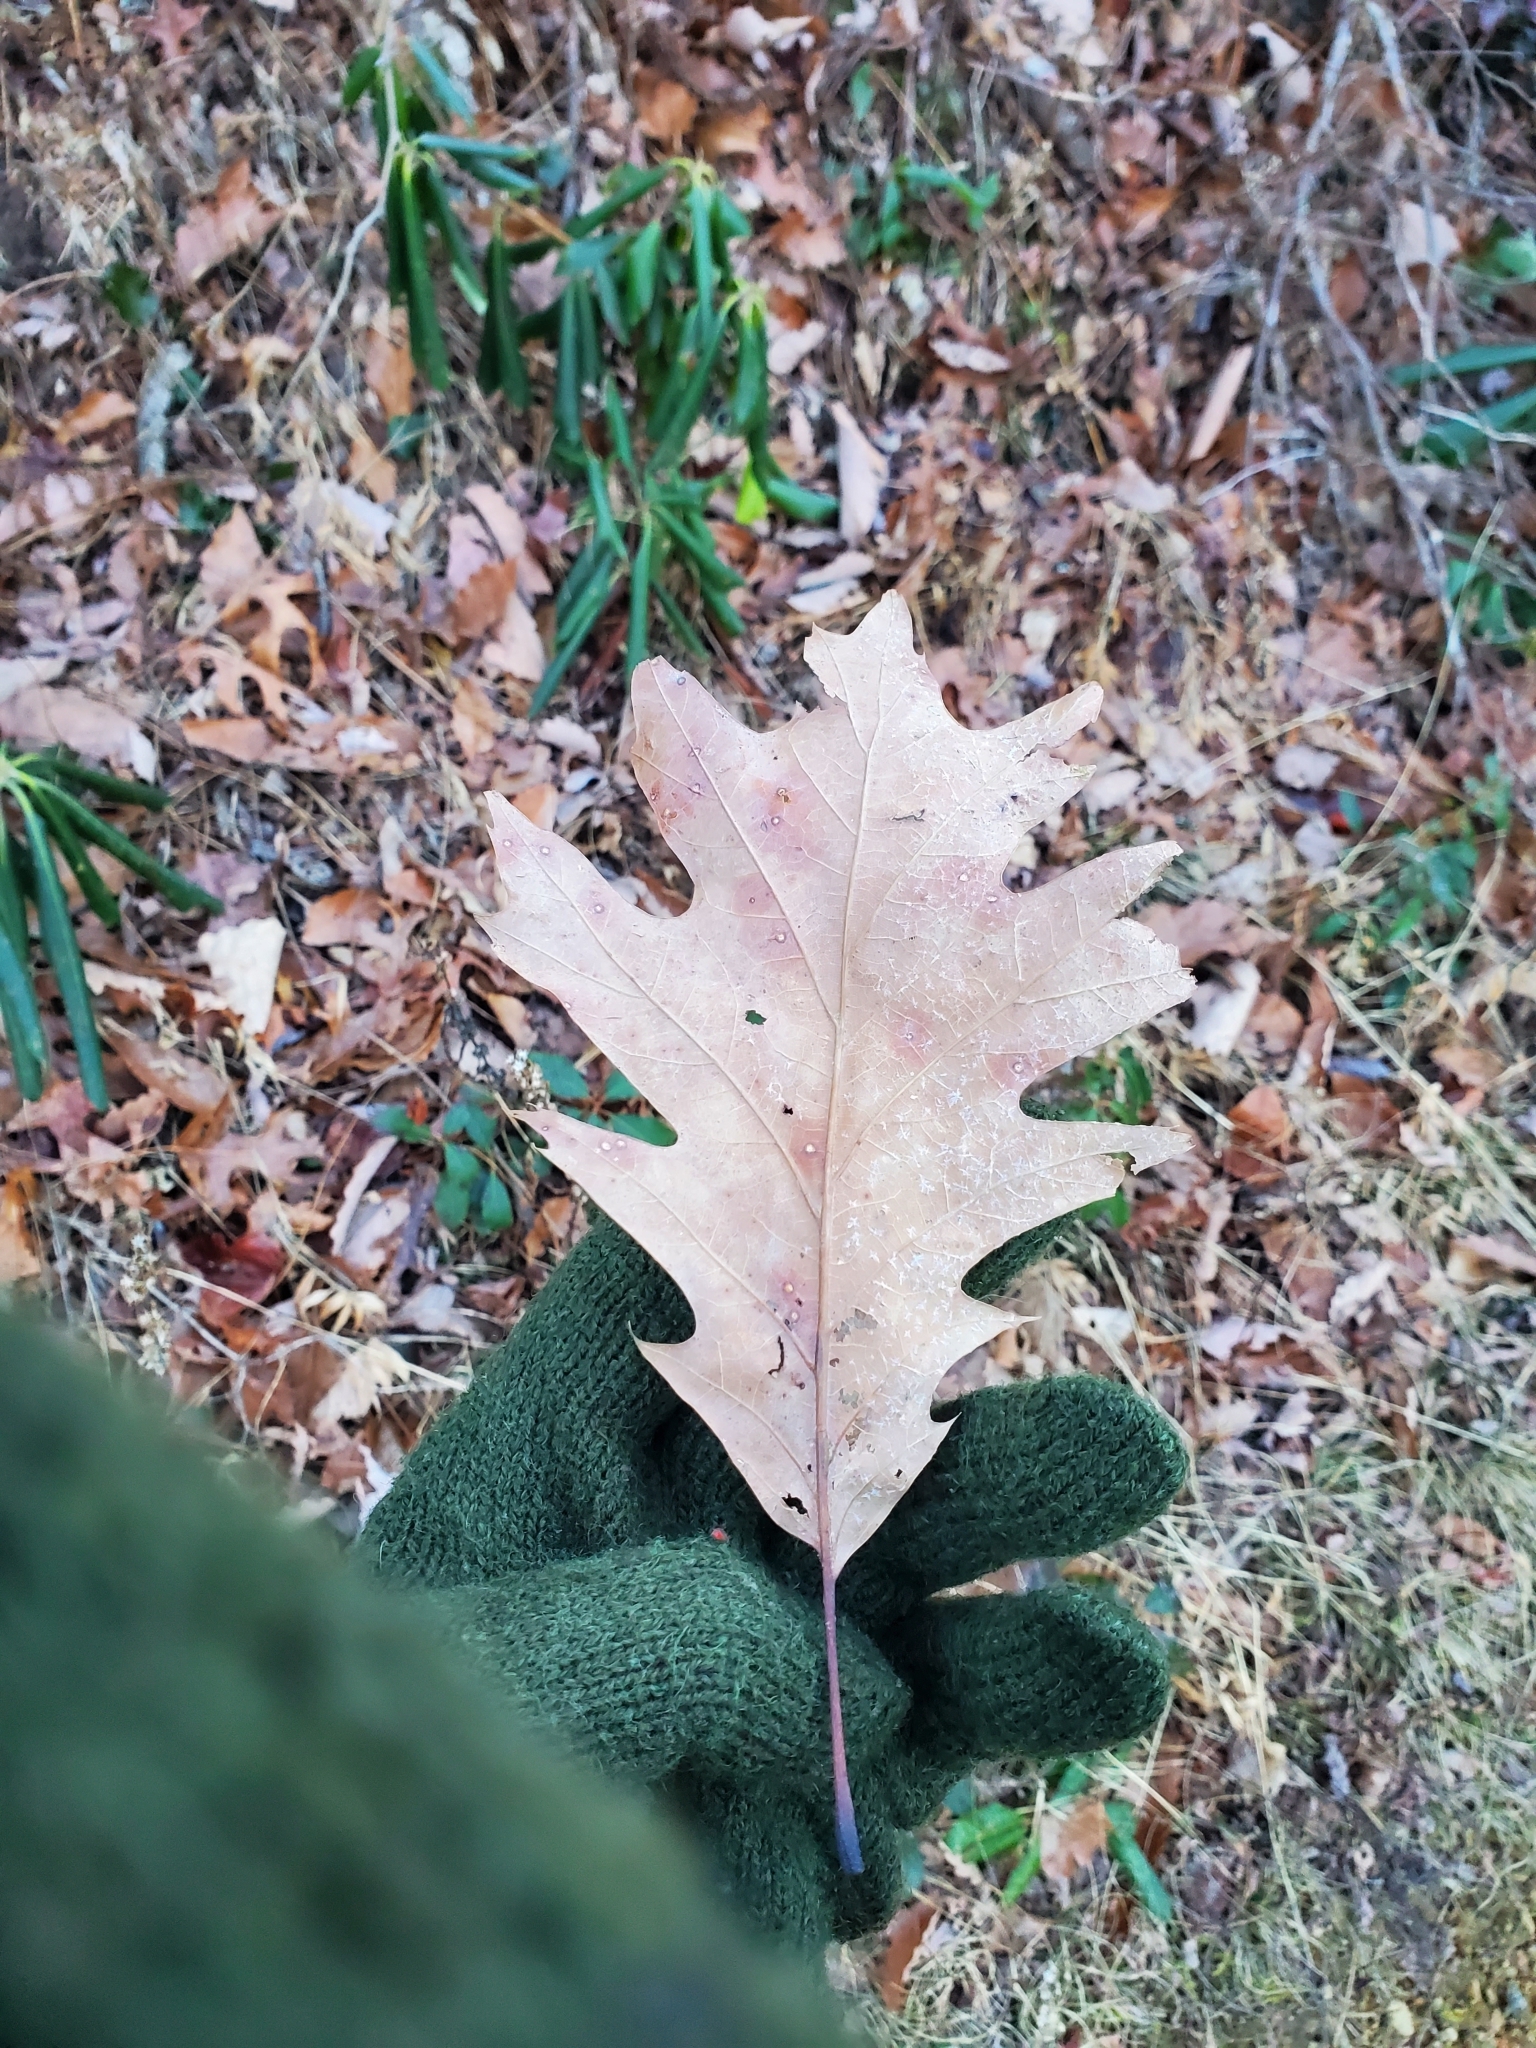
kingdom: Plantae
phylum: Tracheophyta
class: Magnoliopsida
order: Fagales
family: Fagaceae
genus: Quercus
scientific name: Quercus rubra
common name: Red oak
